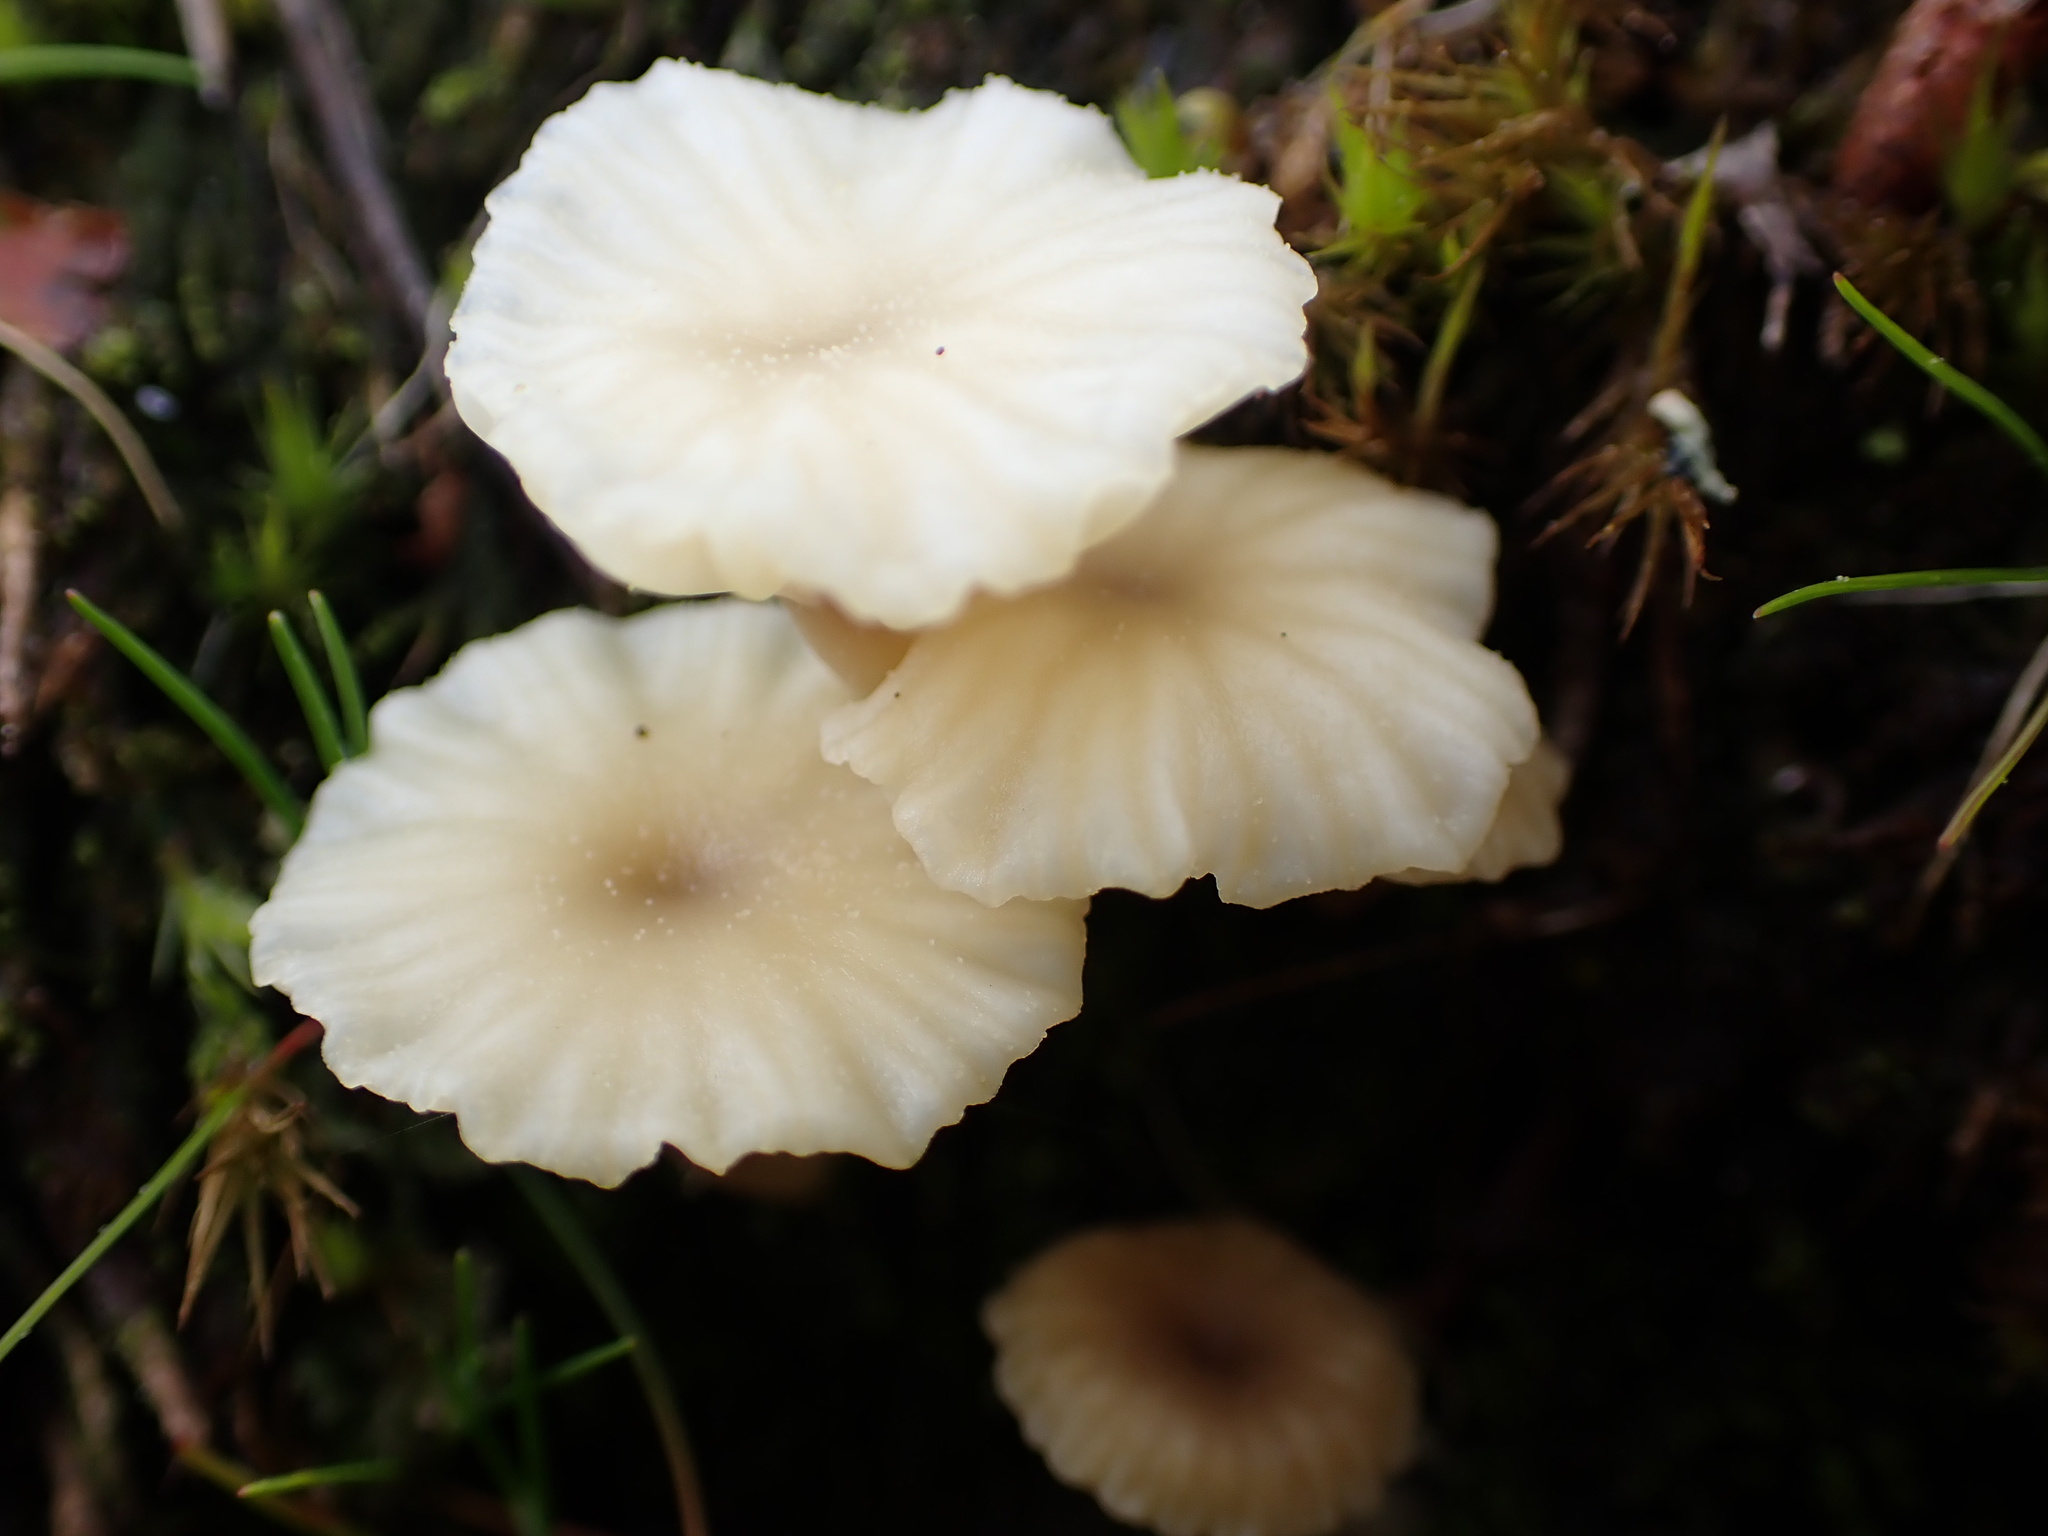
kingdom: Fungi
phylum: Basidiomycota
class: Agaricomycetes
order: Agaricales
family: Hygrophoraceae
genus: Lichenomphalia
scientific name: Lichenomphalia
